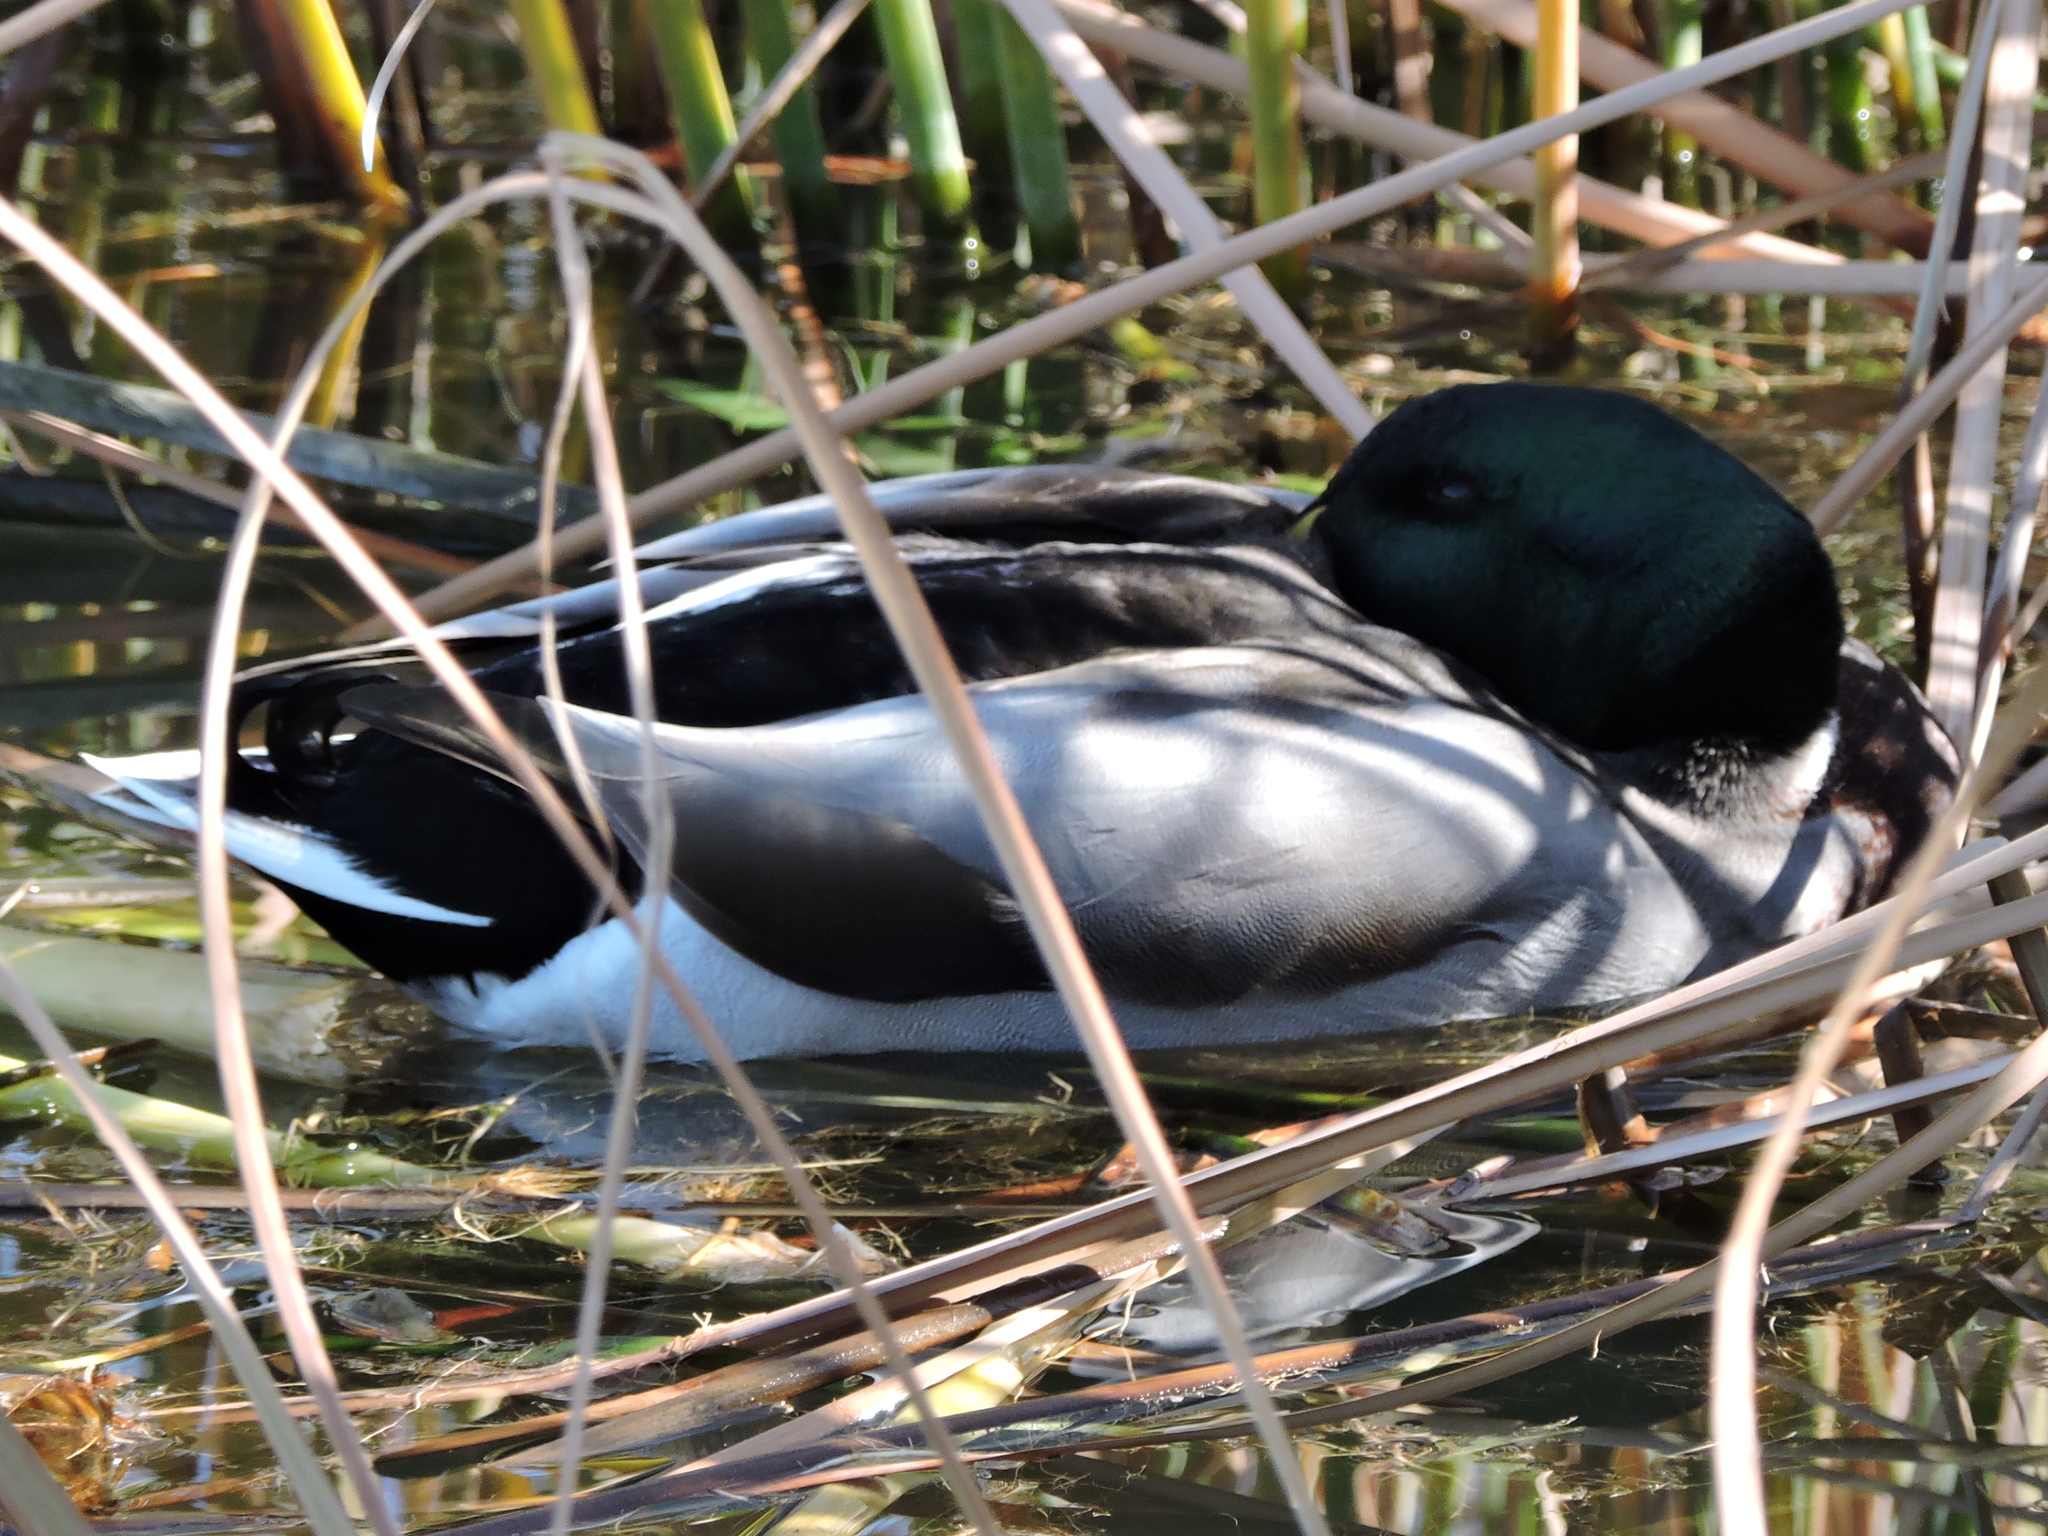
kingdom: Animalia
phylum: Chordata
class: Aves
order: Anseriformes
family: Anatidae
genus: Anas
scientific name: Anas platyrhynchos
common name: Mallard
